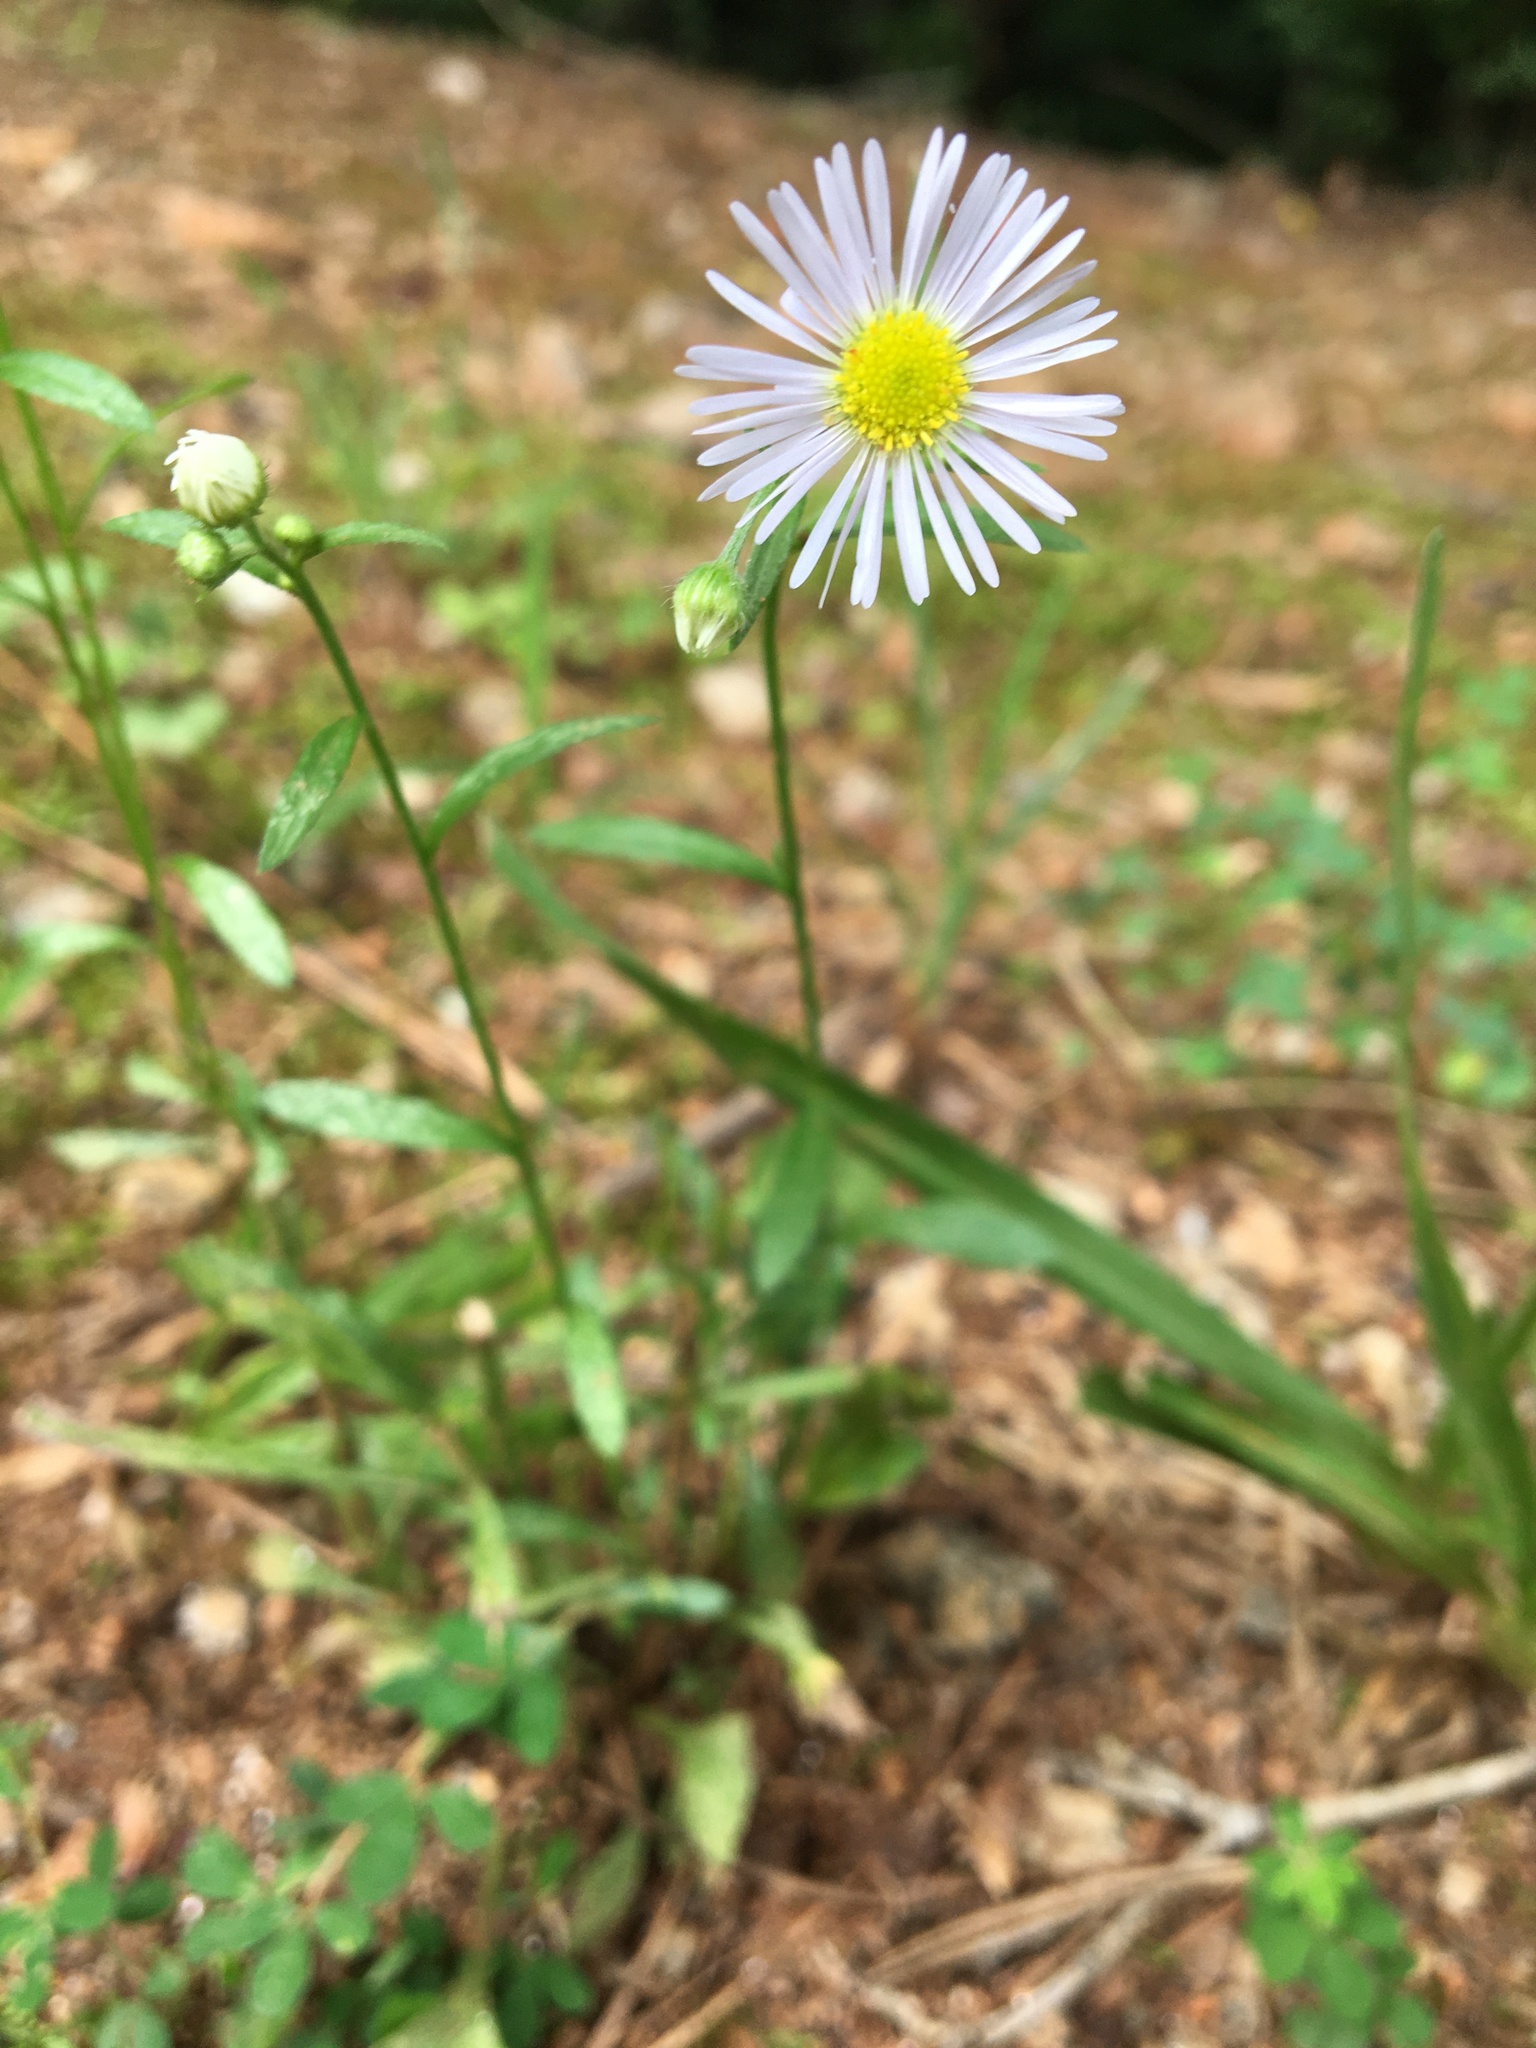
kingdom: Plantae
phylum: Tracheophyta
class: Magnoliopsida
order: Asterales
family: Asteraceae
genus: Erigeron
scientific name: Erigeron strigosus
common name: Common eastern fleabane
